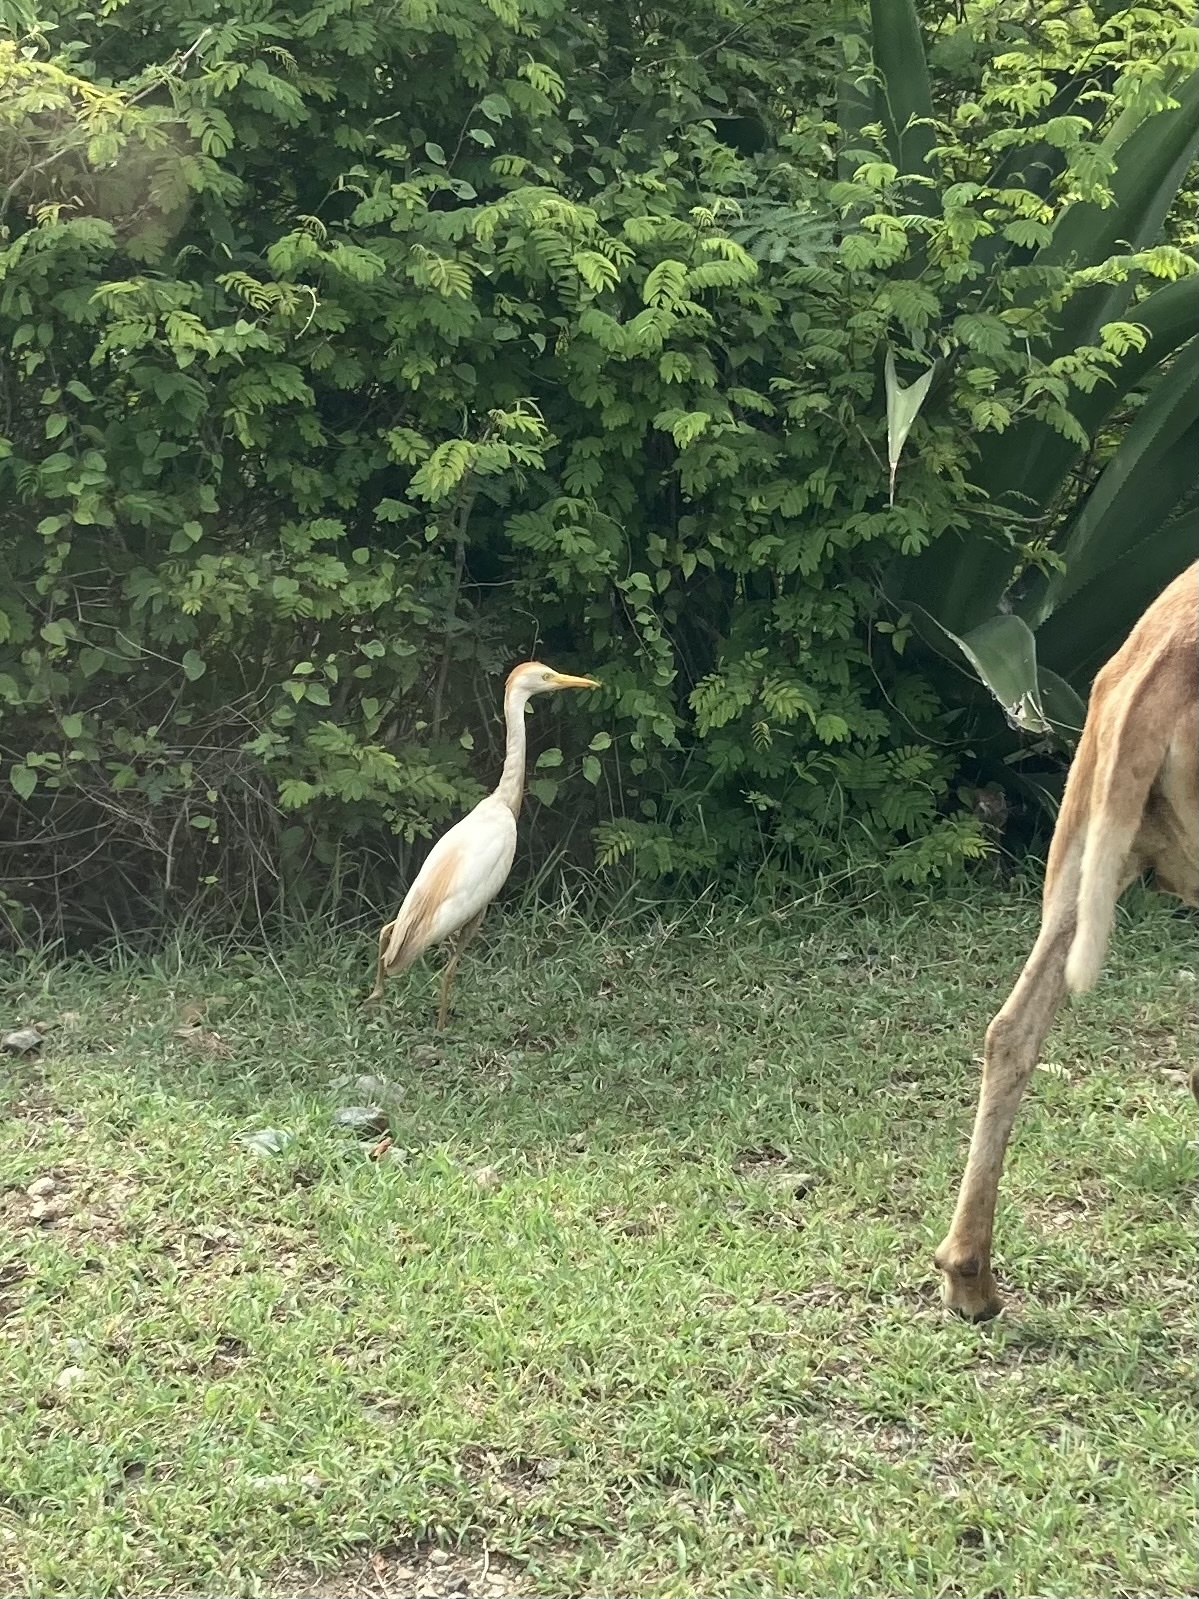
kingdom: Animalia
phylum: Chordata
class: Aves
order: Pelecaniformes
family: Ardeidae
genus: Bubulcus
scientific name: Bubulcus ibis
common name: Cattle egret
